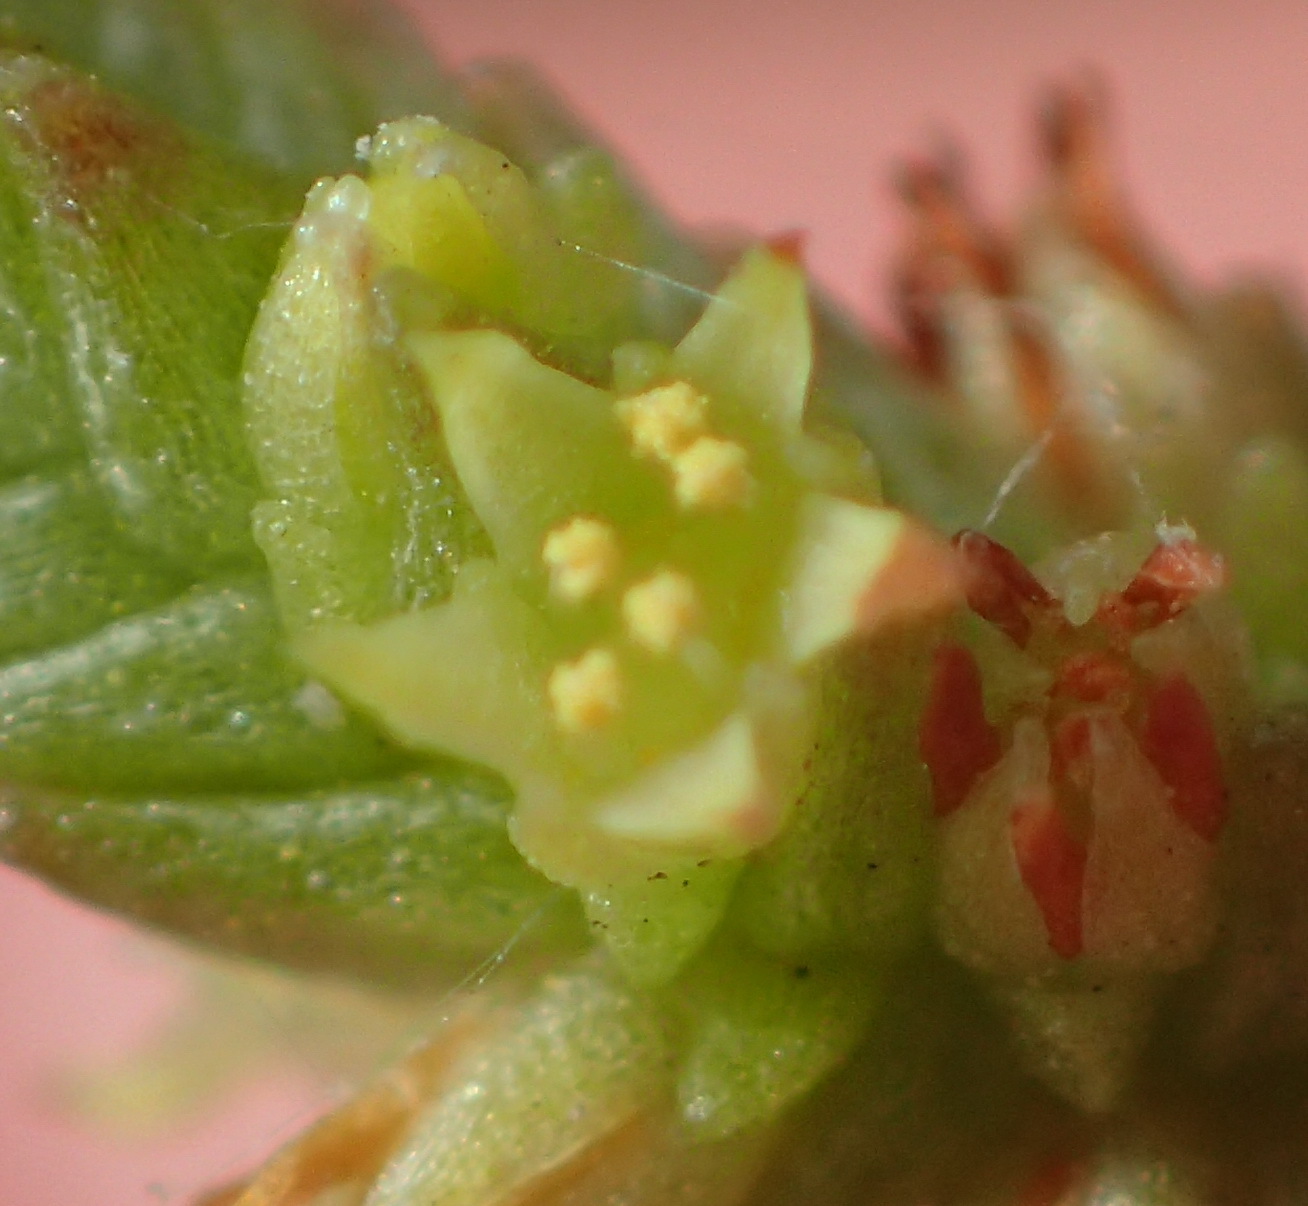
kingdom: Plantae
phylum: Tracheophyta
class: Magnoliopsida
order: Saxifragales
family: Crassulaceae
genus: Crassula
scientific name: Crassula muscosa
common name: Toy-cypress
